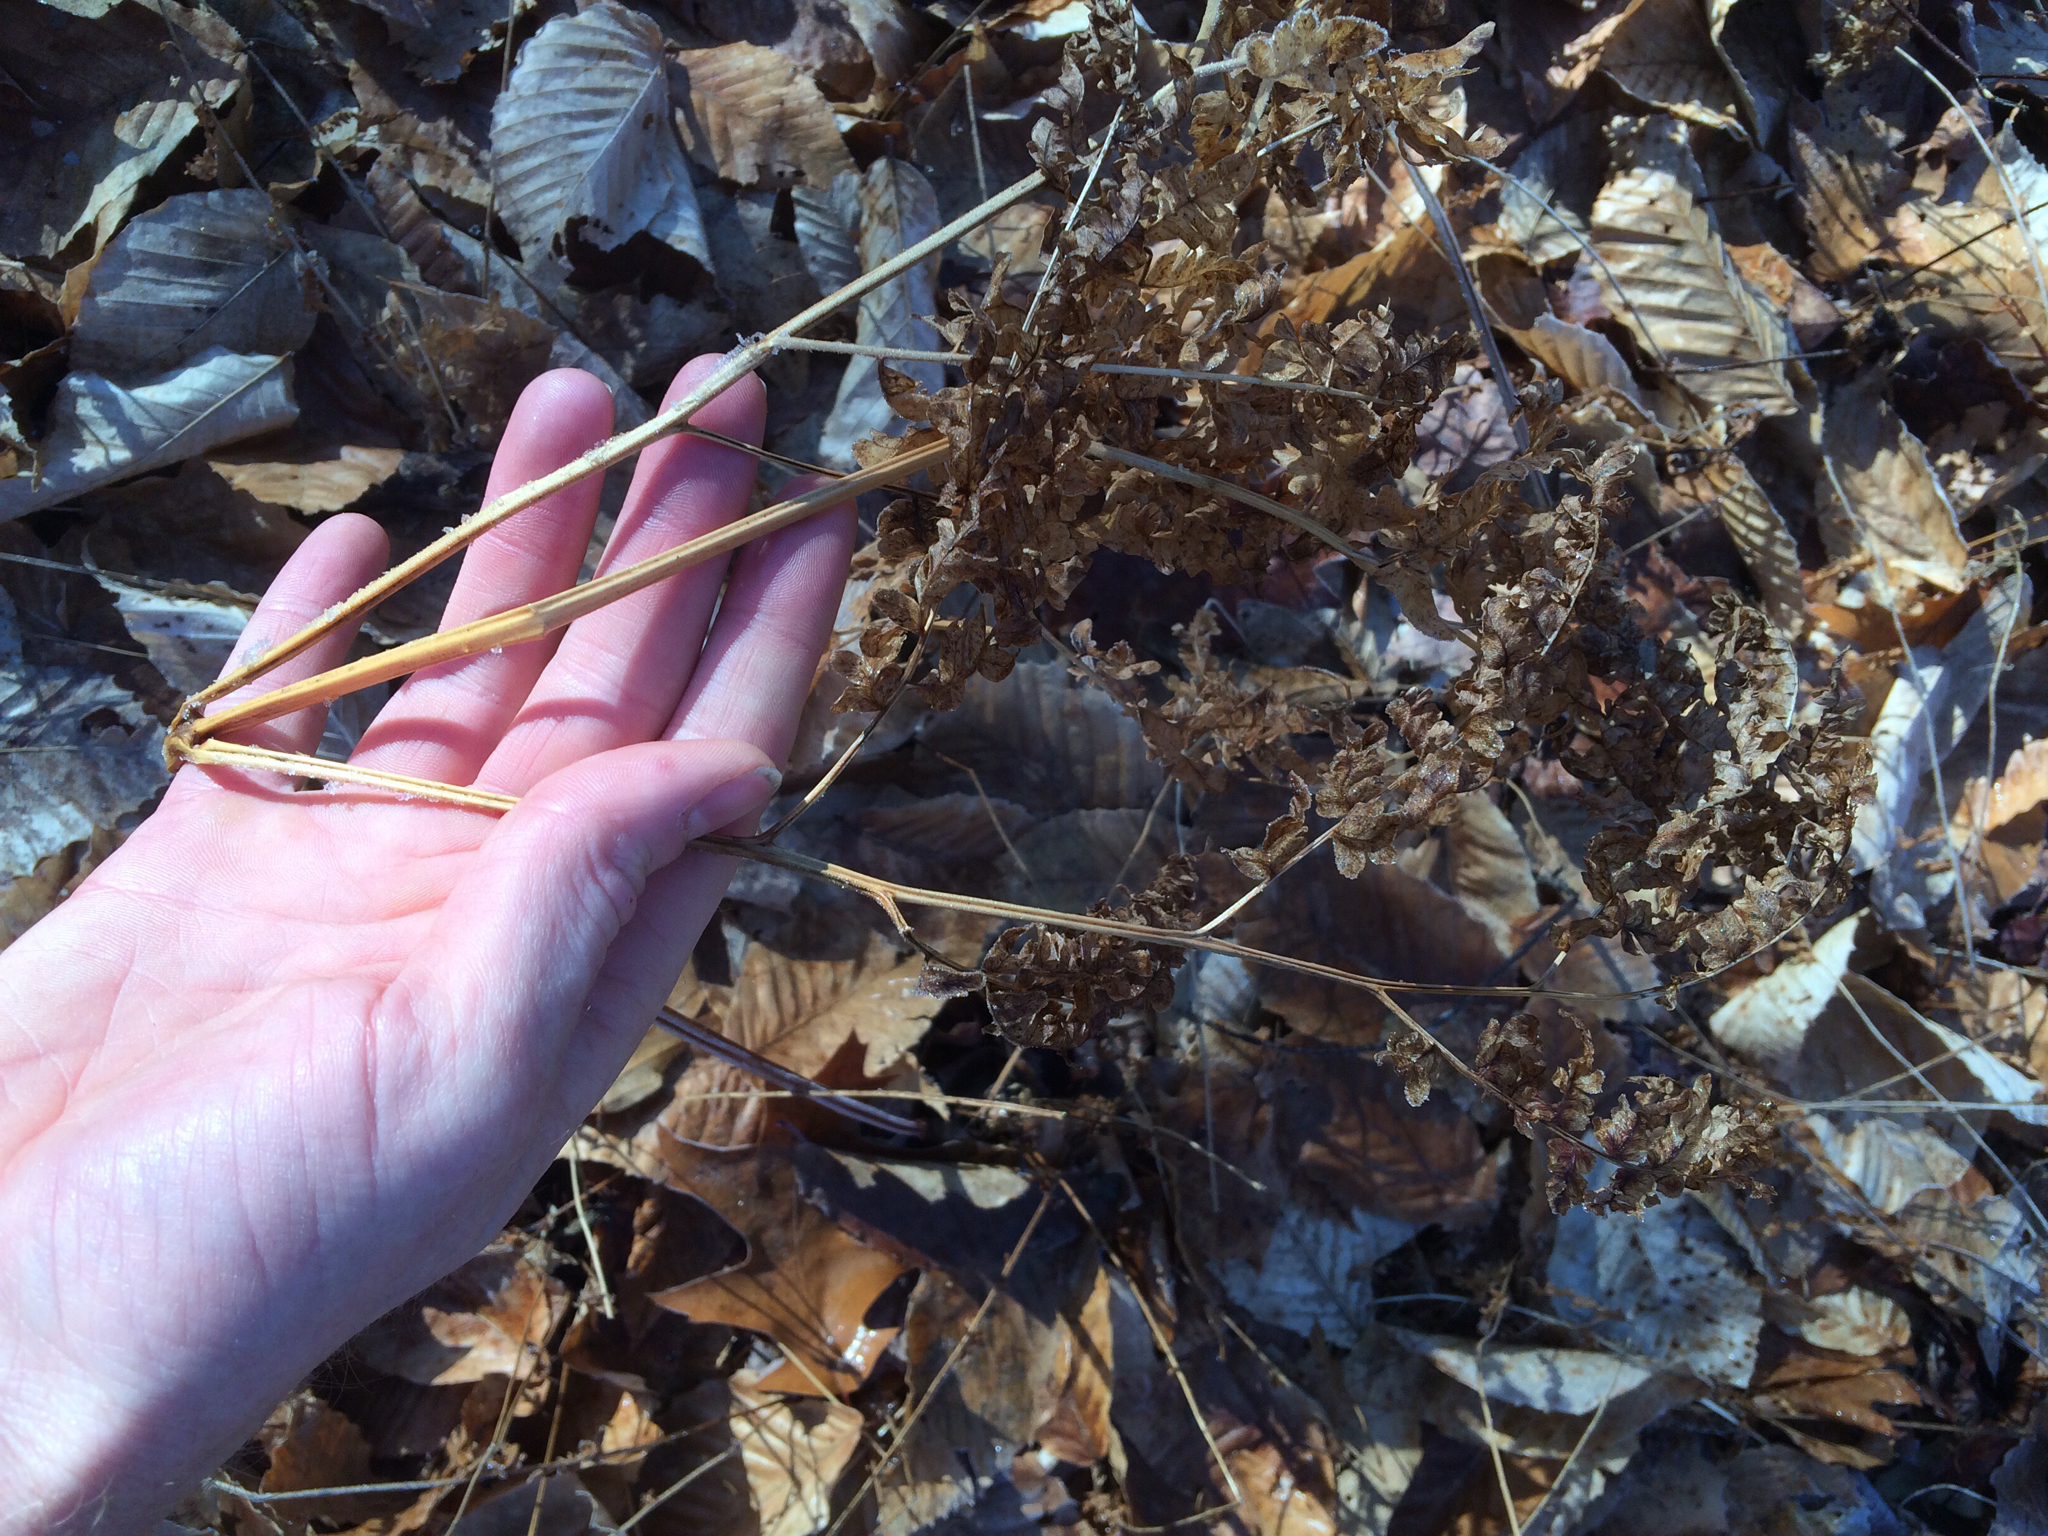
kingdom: Plantae
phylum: Tracheophyta
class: Polypodiopsida
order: Polypodiales
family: Dennstaedtiaceae
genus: Pteridium
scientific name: Pteridium aquilinum
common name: Bracken
